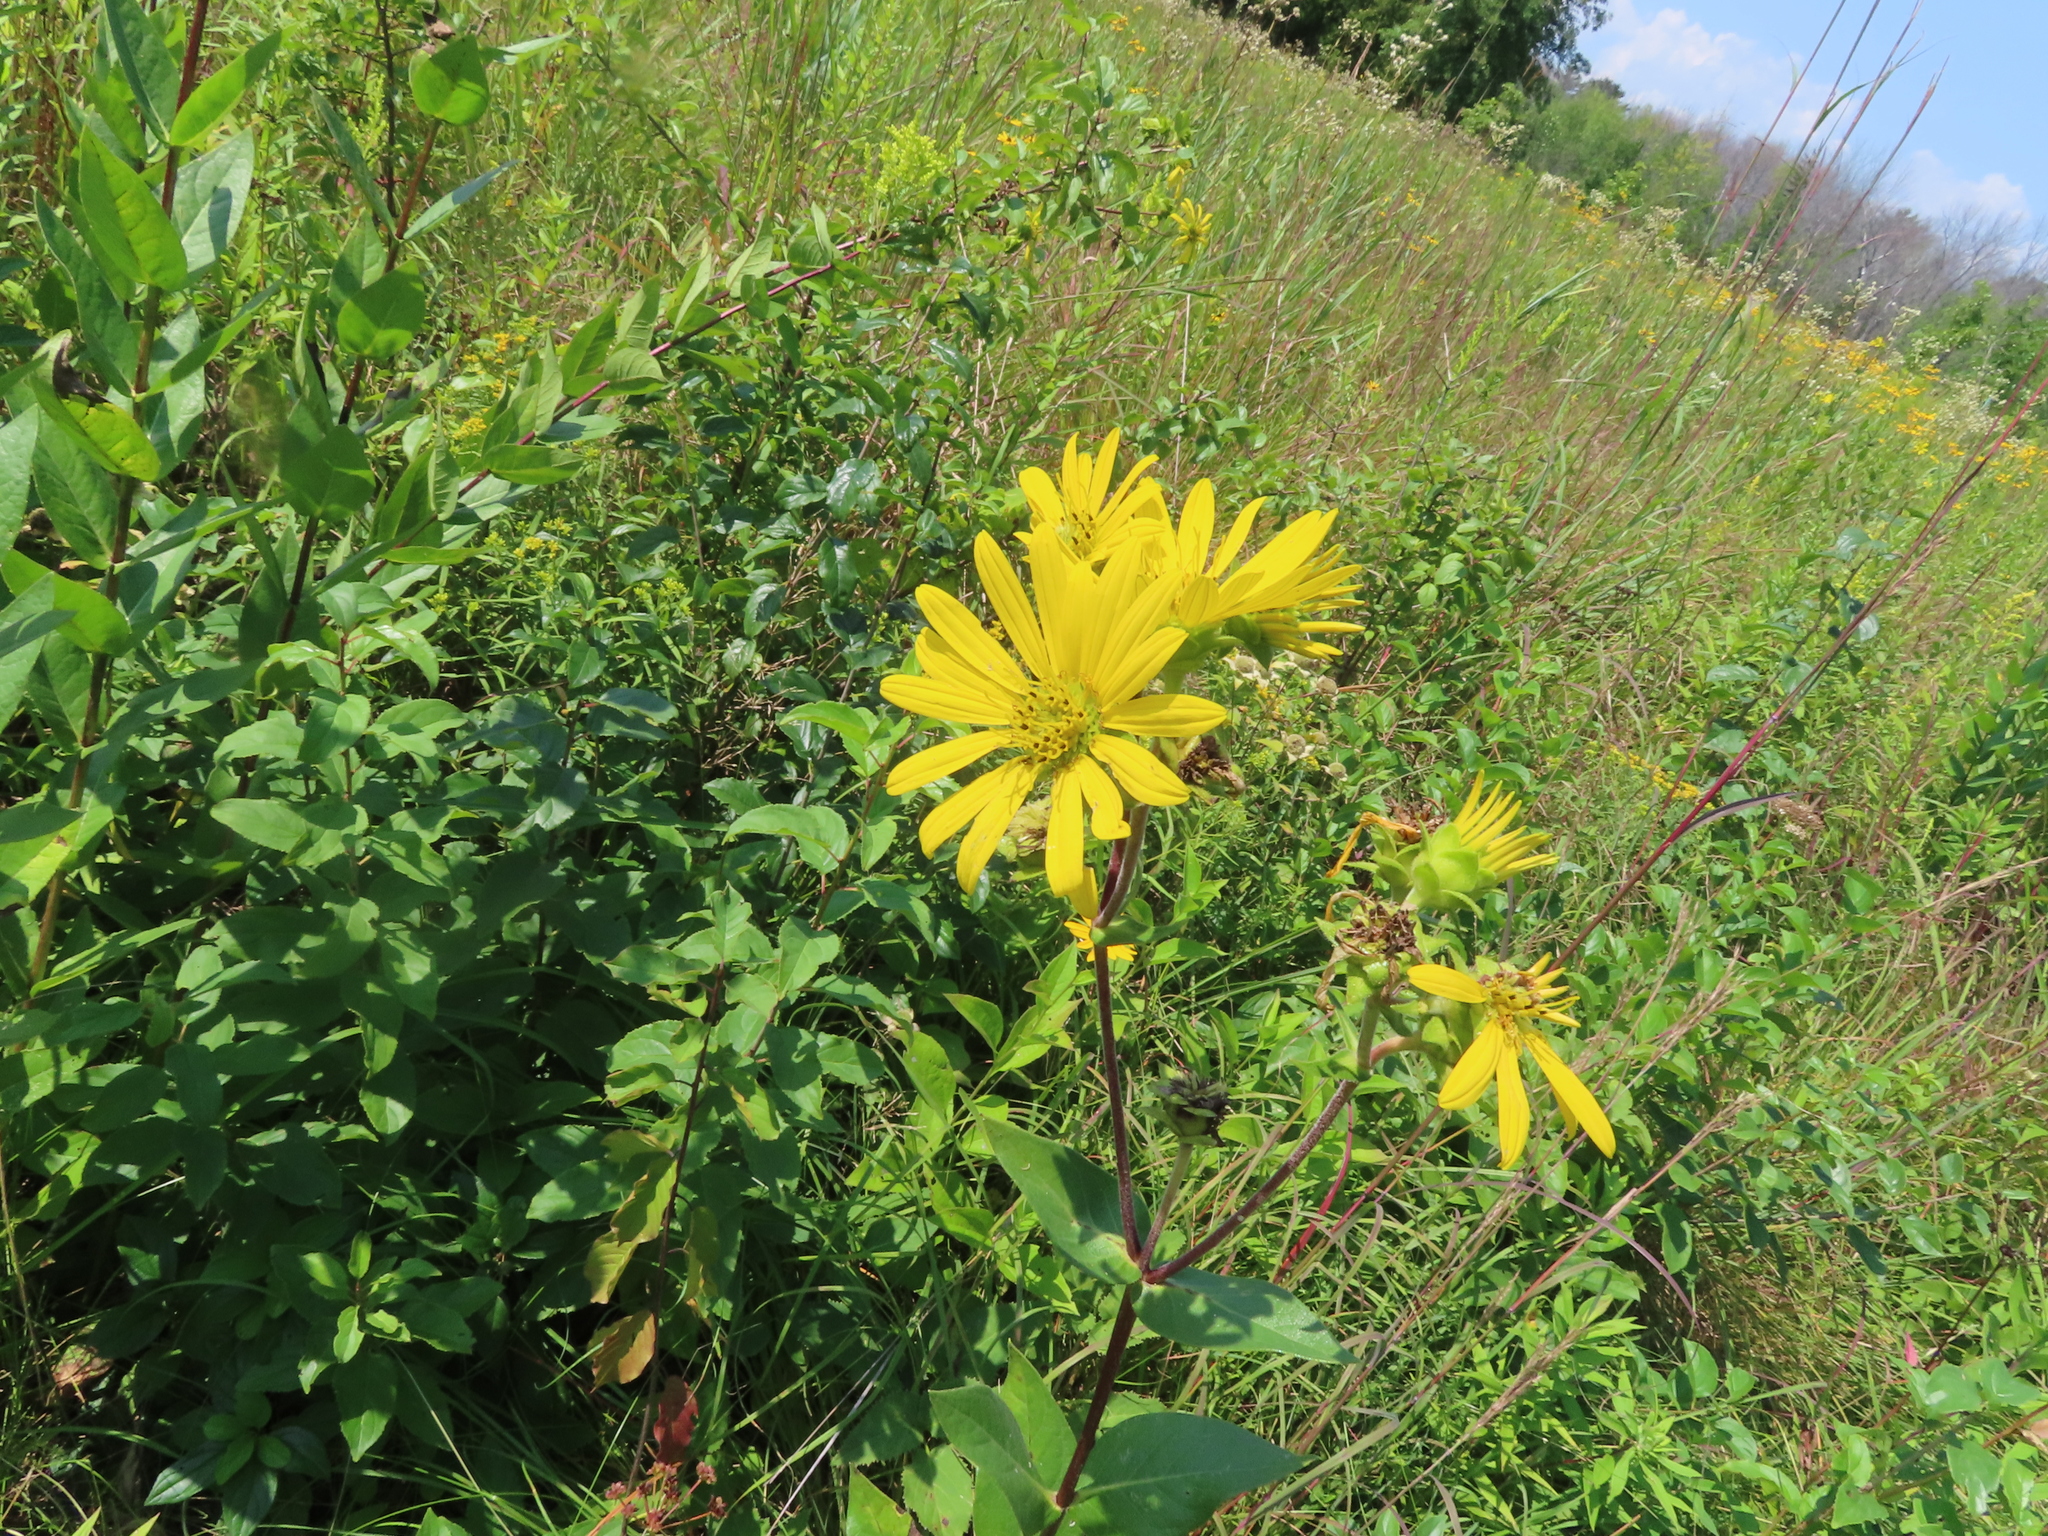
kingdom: Plantae
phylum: Tracheophyta
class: Magnoliopsida
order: Asterales
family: Asteraceae
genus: Silphium
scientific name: Silphium integrifolium
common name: Whole-leaf rosinweed
